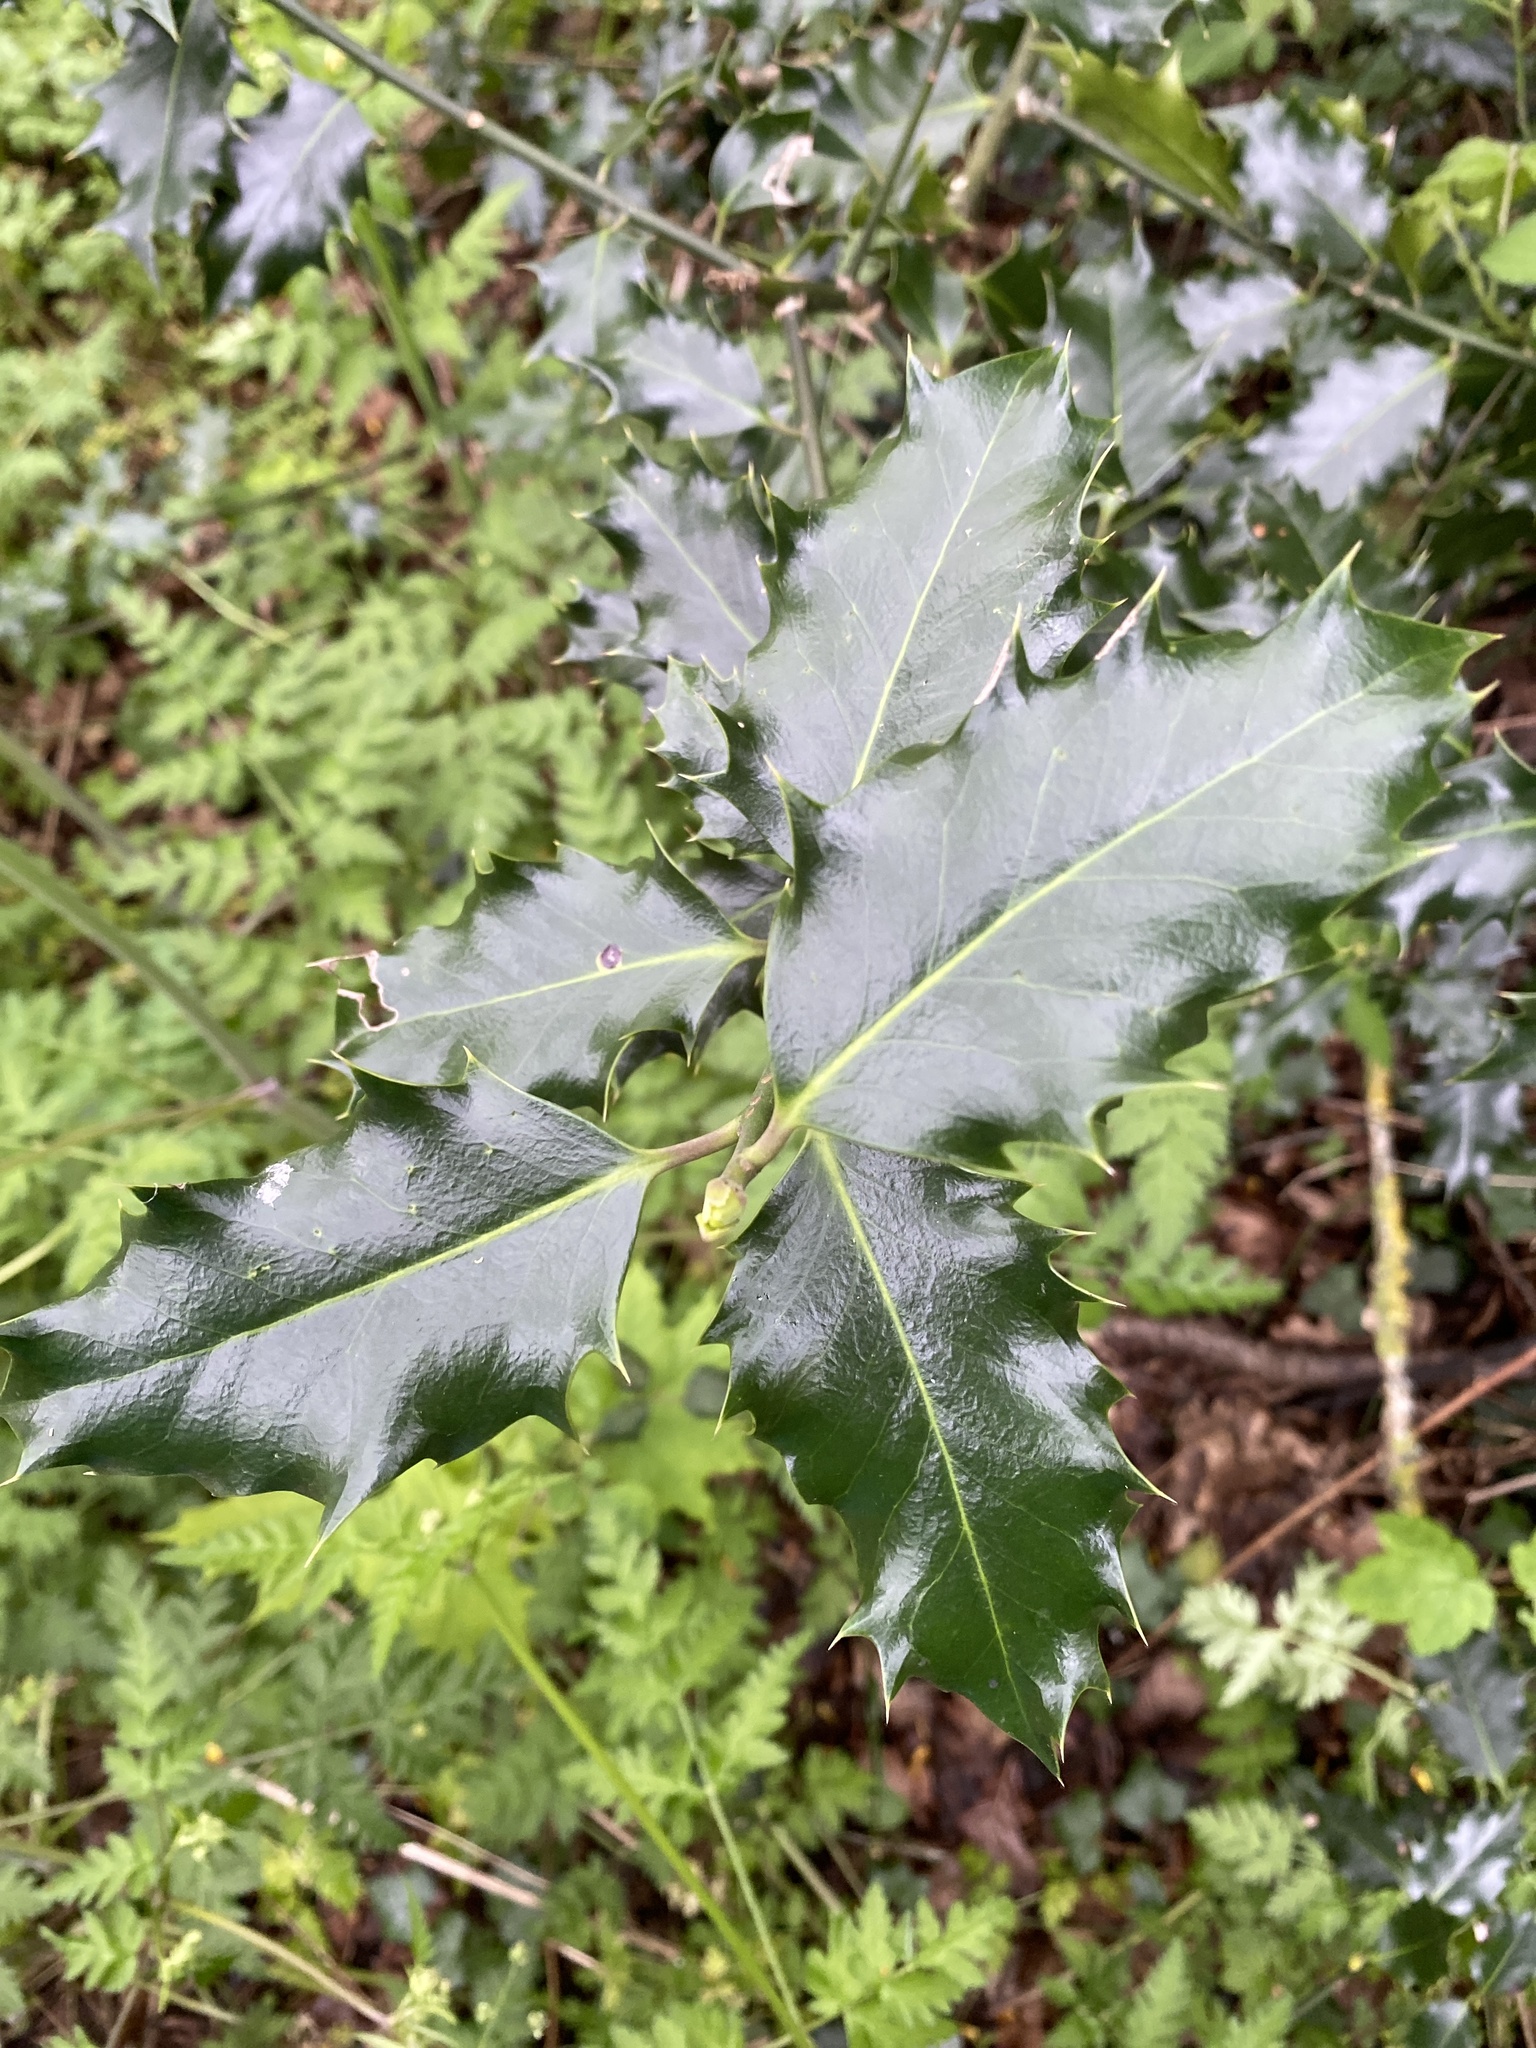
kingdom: Plantae
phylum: Tracheophyta
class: Magnoliopsida
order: Aquifoliales
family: Aquifoliaceae
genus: Ilex
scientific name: Ilex aquifolium
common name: English holly
